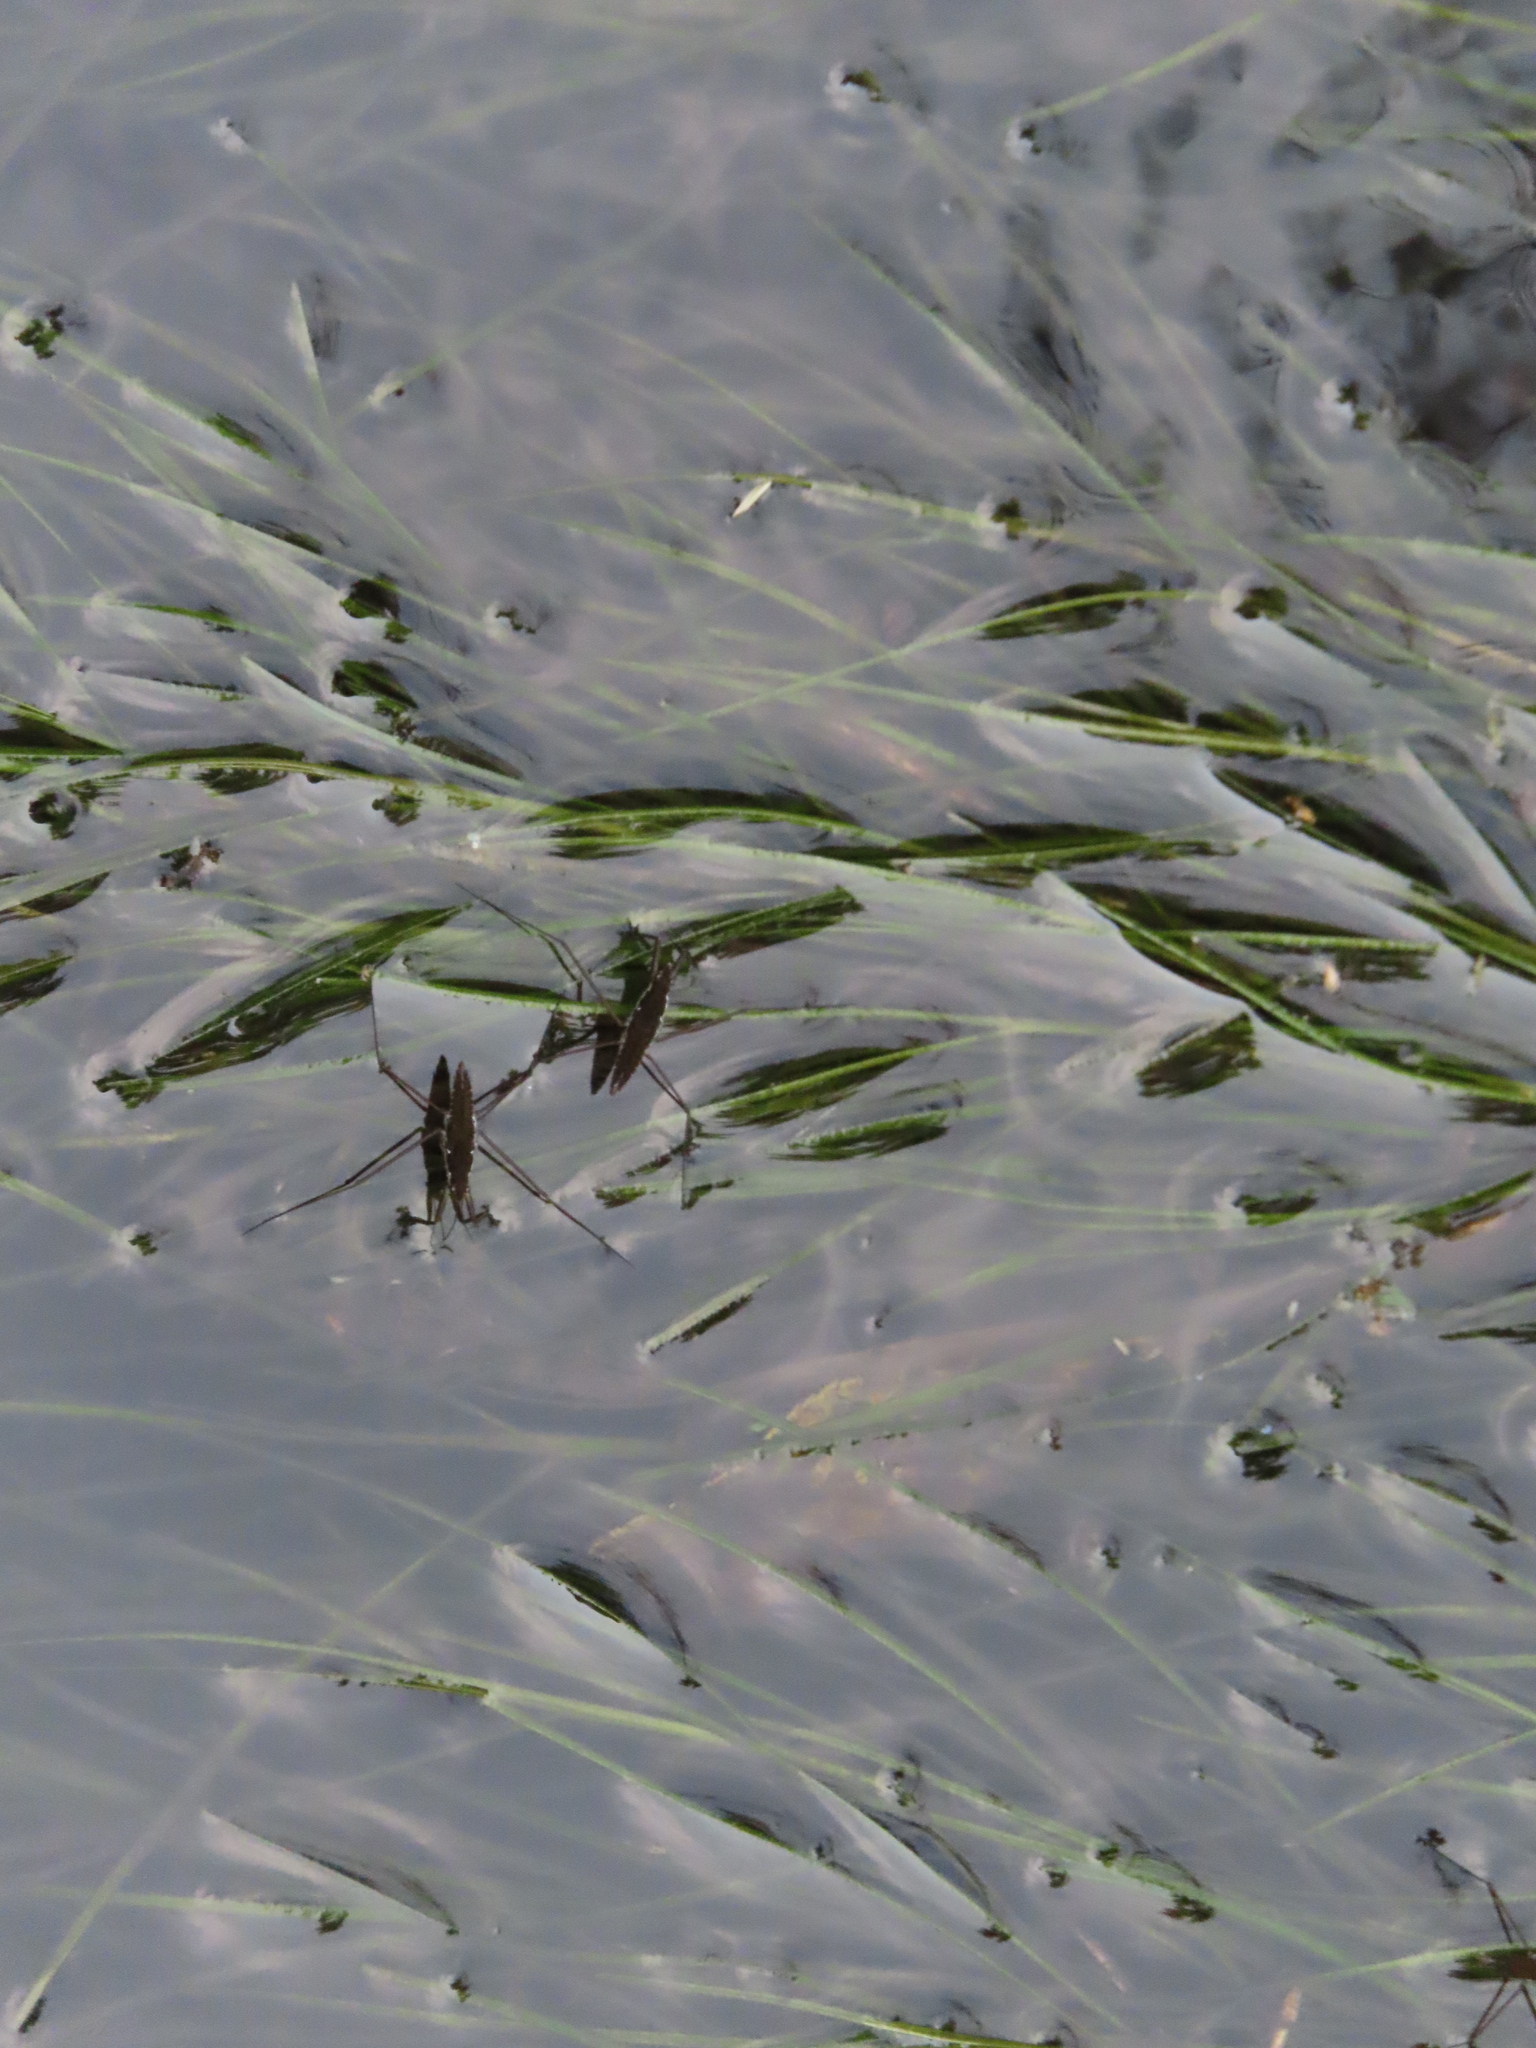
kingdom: Animalia
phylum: Arthropoda
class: Insecta
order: Hemiptera
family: Gerridae
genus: Aquarius
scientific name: Aquarius remigis
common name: Common water strider
